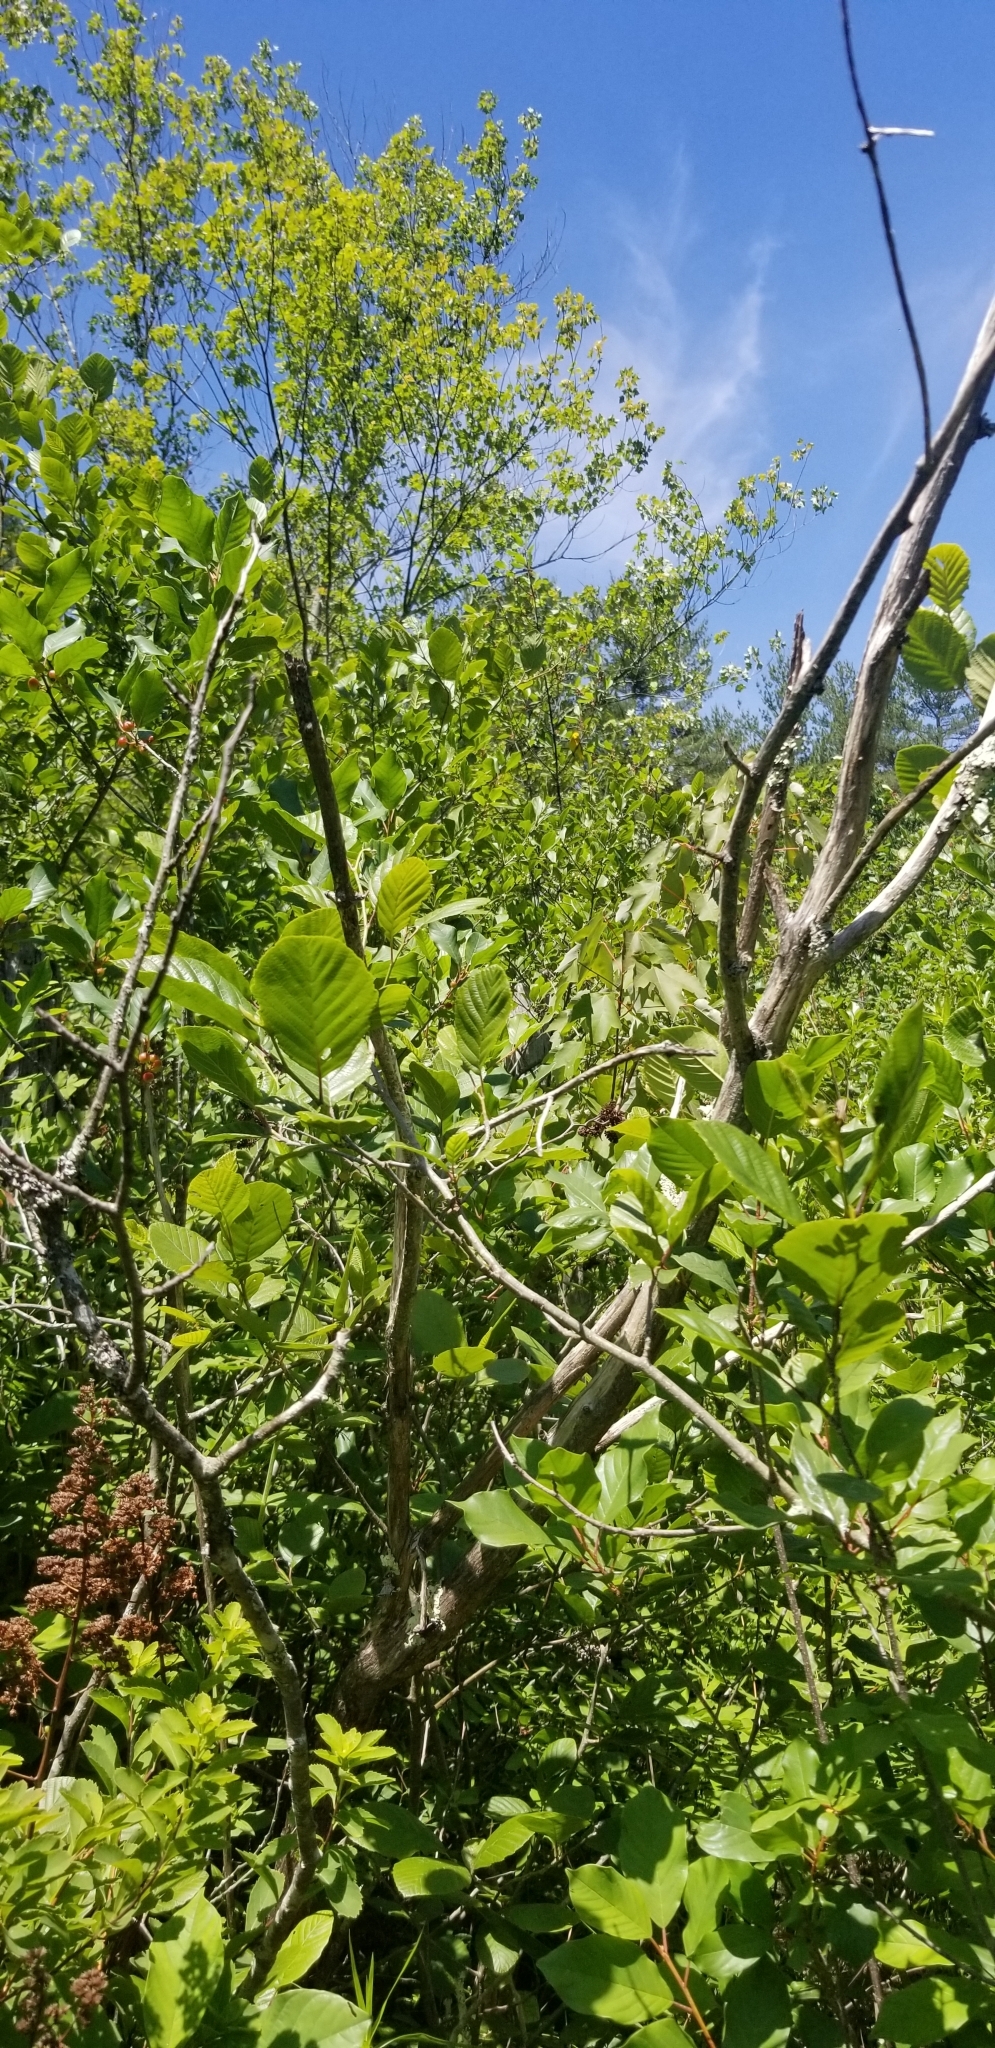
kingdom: Animalia
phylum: Chordata
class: Aves
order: Passeriformes
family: Parulidae
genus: Setophaga
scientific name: Setophaga petechia
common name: Yellow warbler
